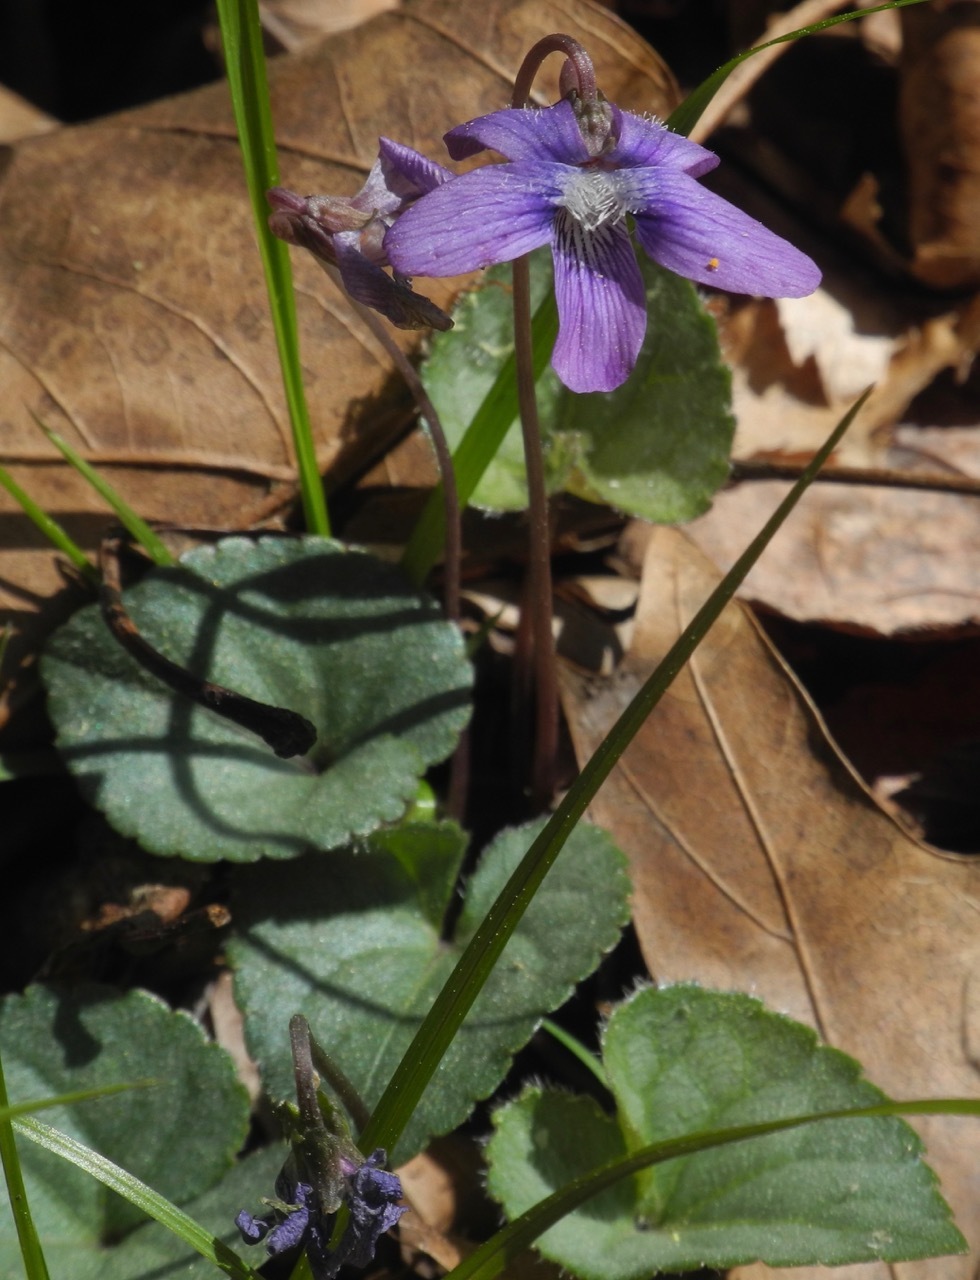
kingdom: Plantae
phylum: Tracheophyta
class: Magnoliopsida
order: Malpighiales
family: Violaceae
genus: Viola
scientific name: Viola hirsutula
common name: Southern wood violet
